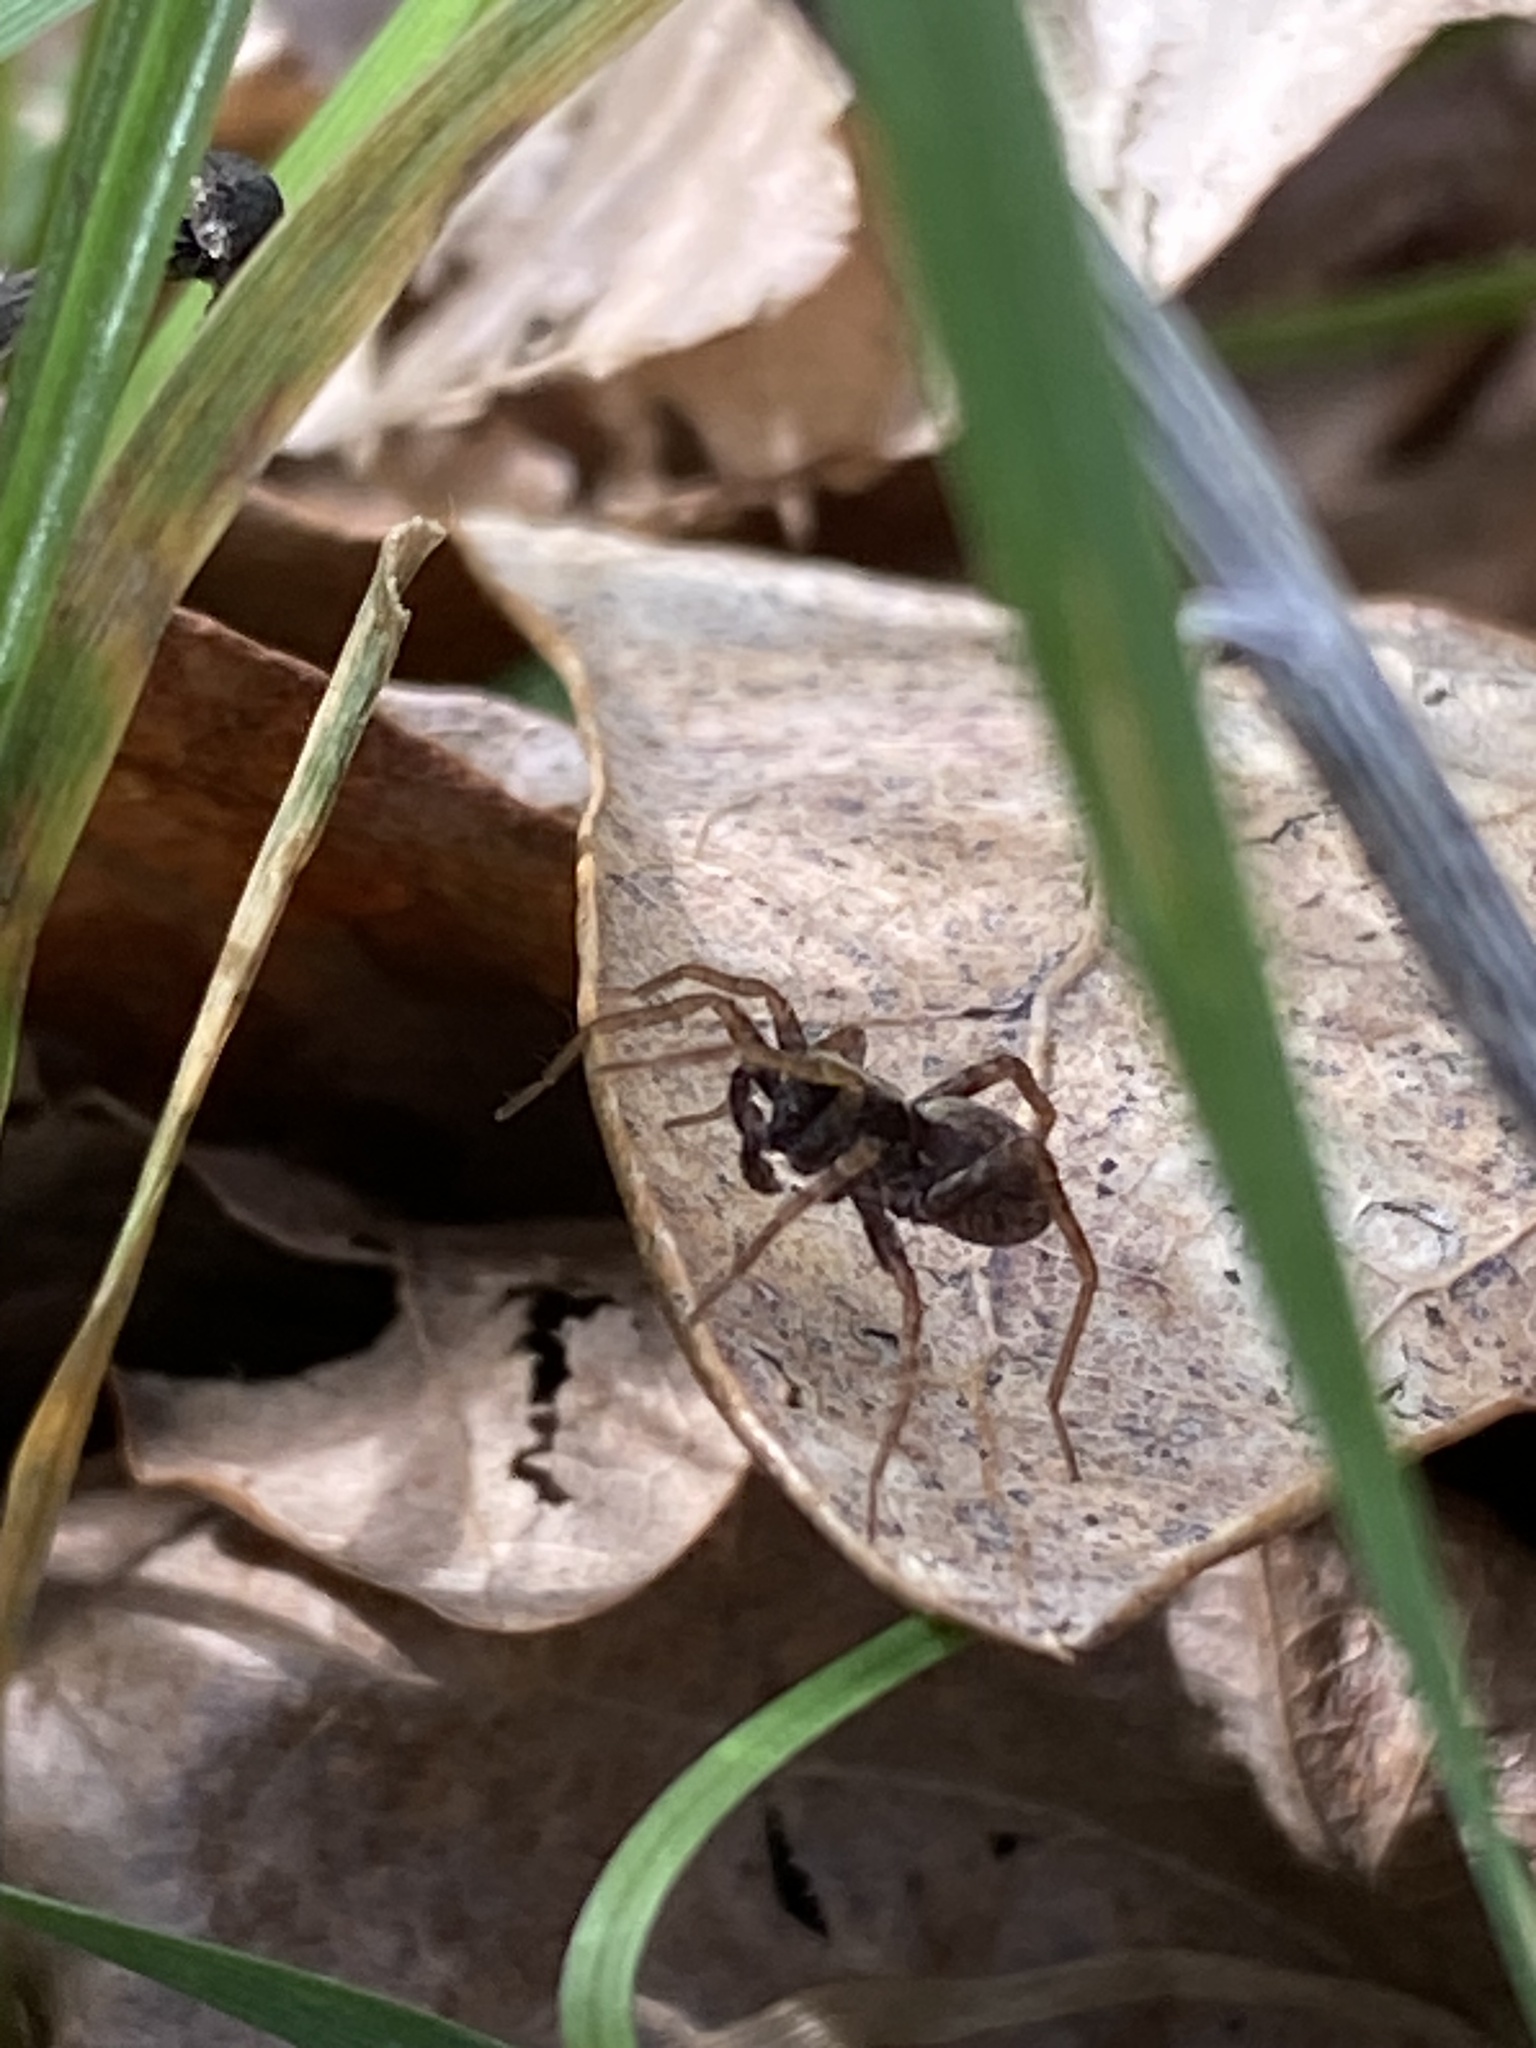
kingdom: Animalia
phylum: Arthropoda
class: Arachnida
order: Araneae
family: Lycosidae
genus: Pardosa
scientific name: Pardosa
